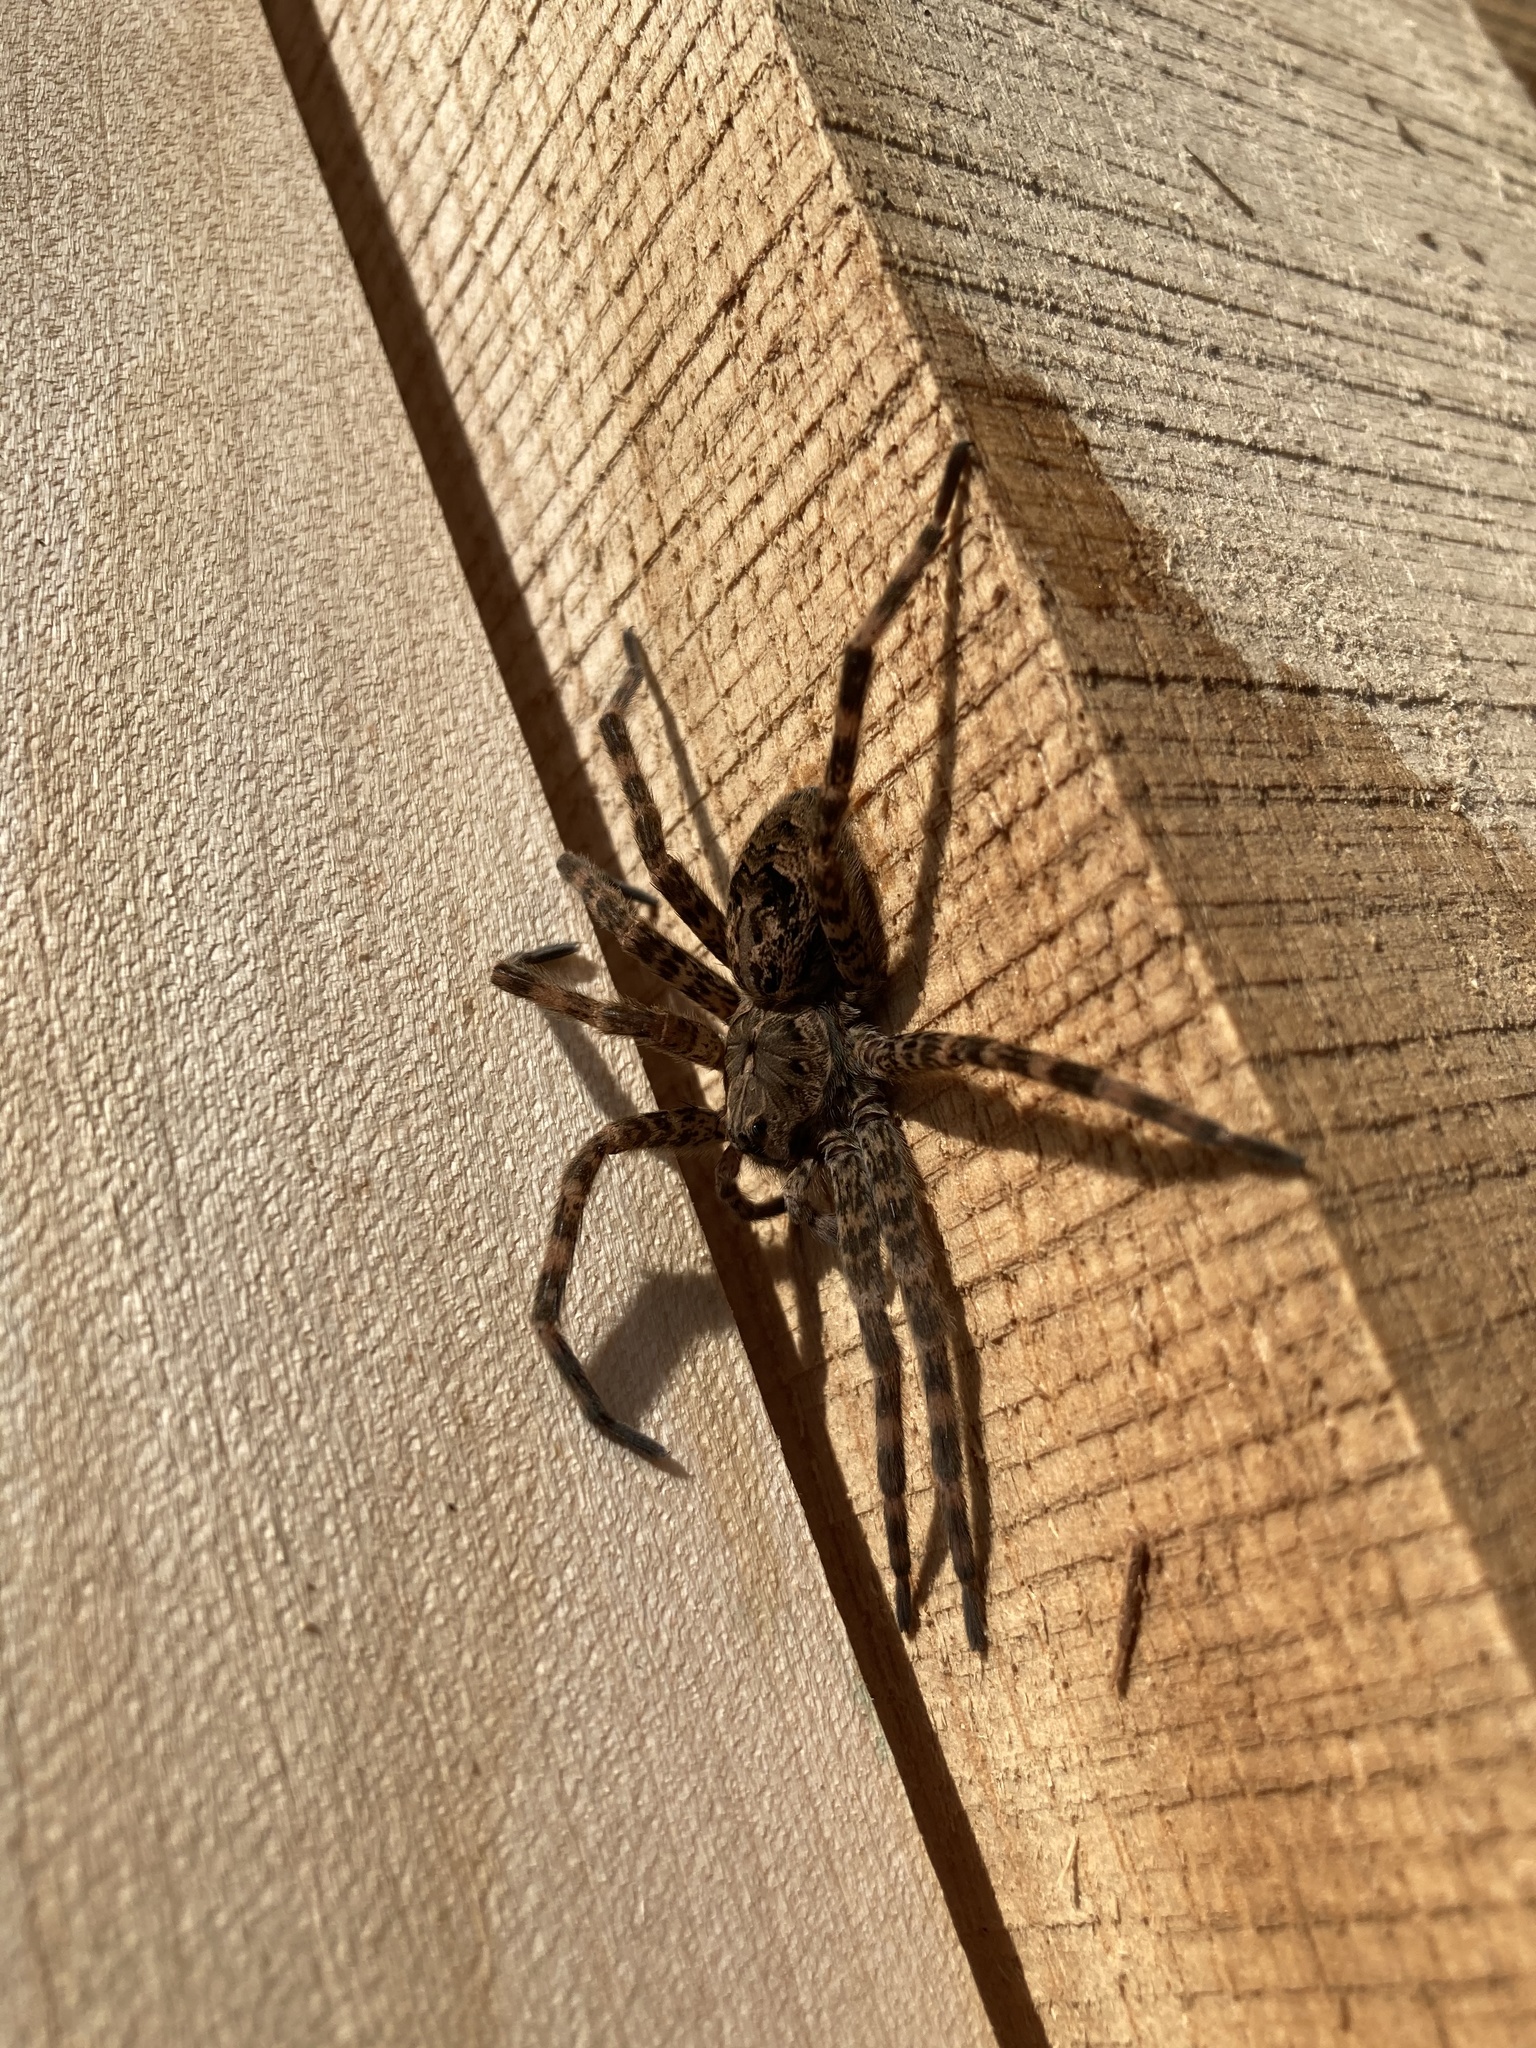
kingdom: Animalia
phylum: Arthropoda
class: Arachnida
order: Araneae
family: Pisauridae
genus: Dolomedes
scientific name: Dolomedes tenebrosus
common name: Dark fishing spider
